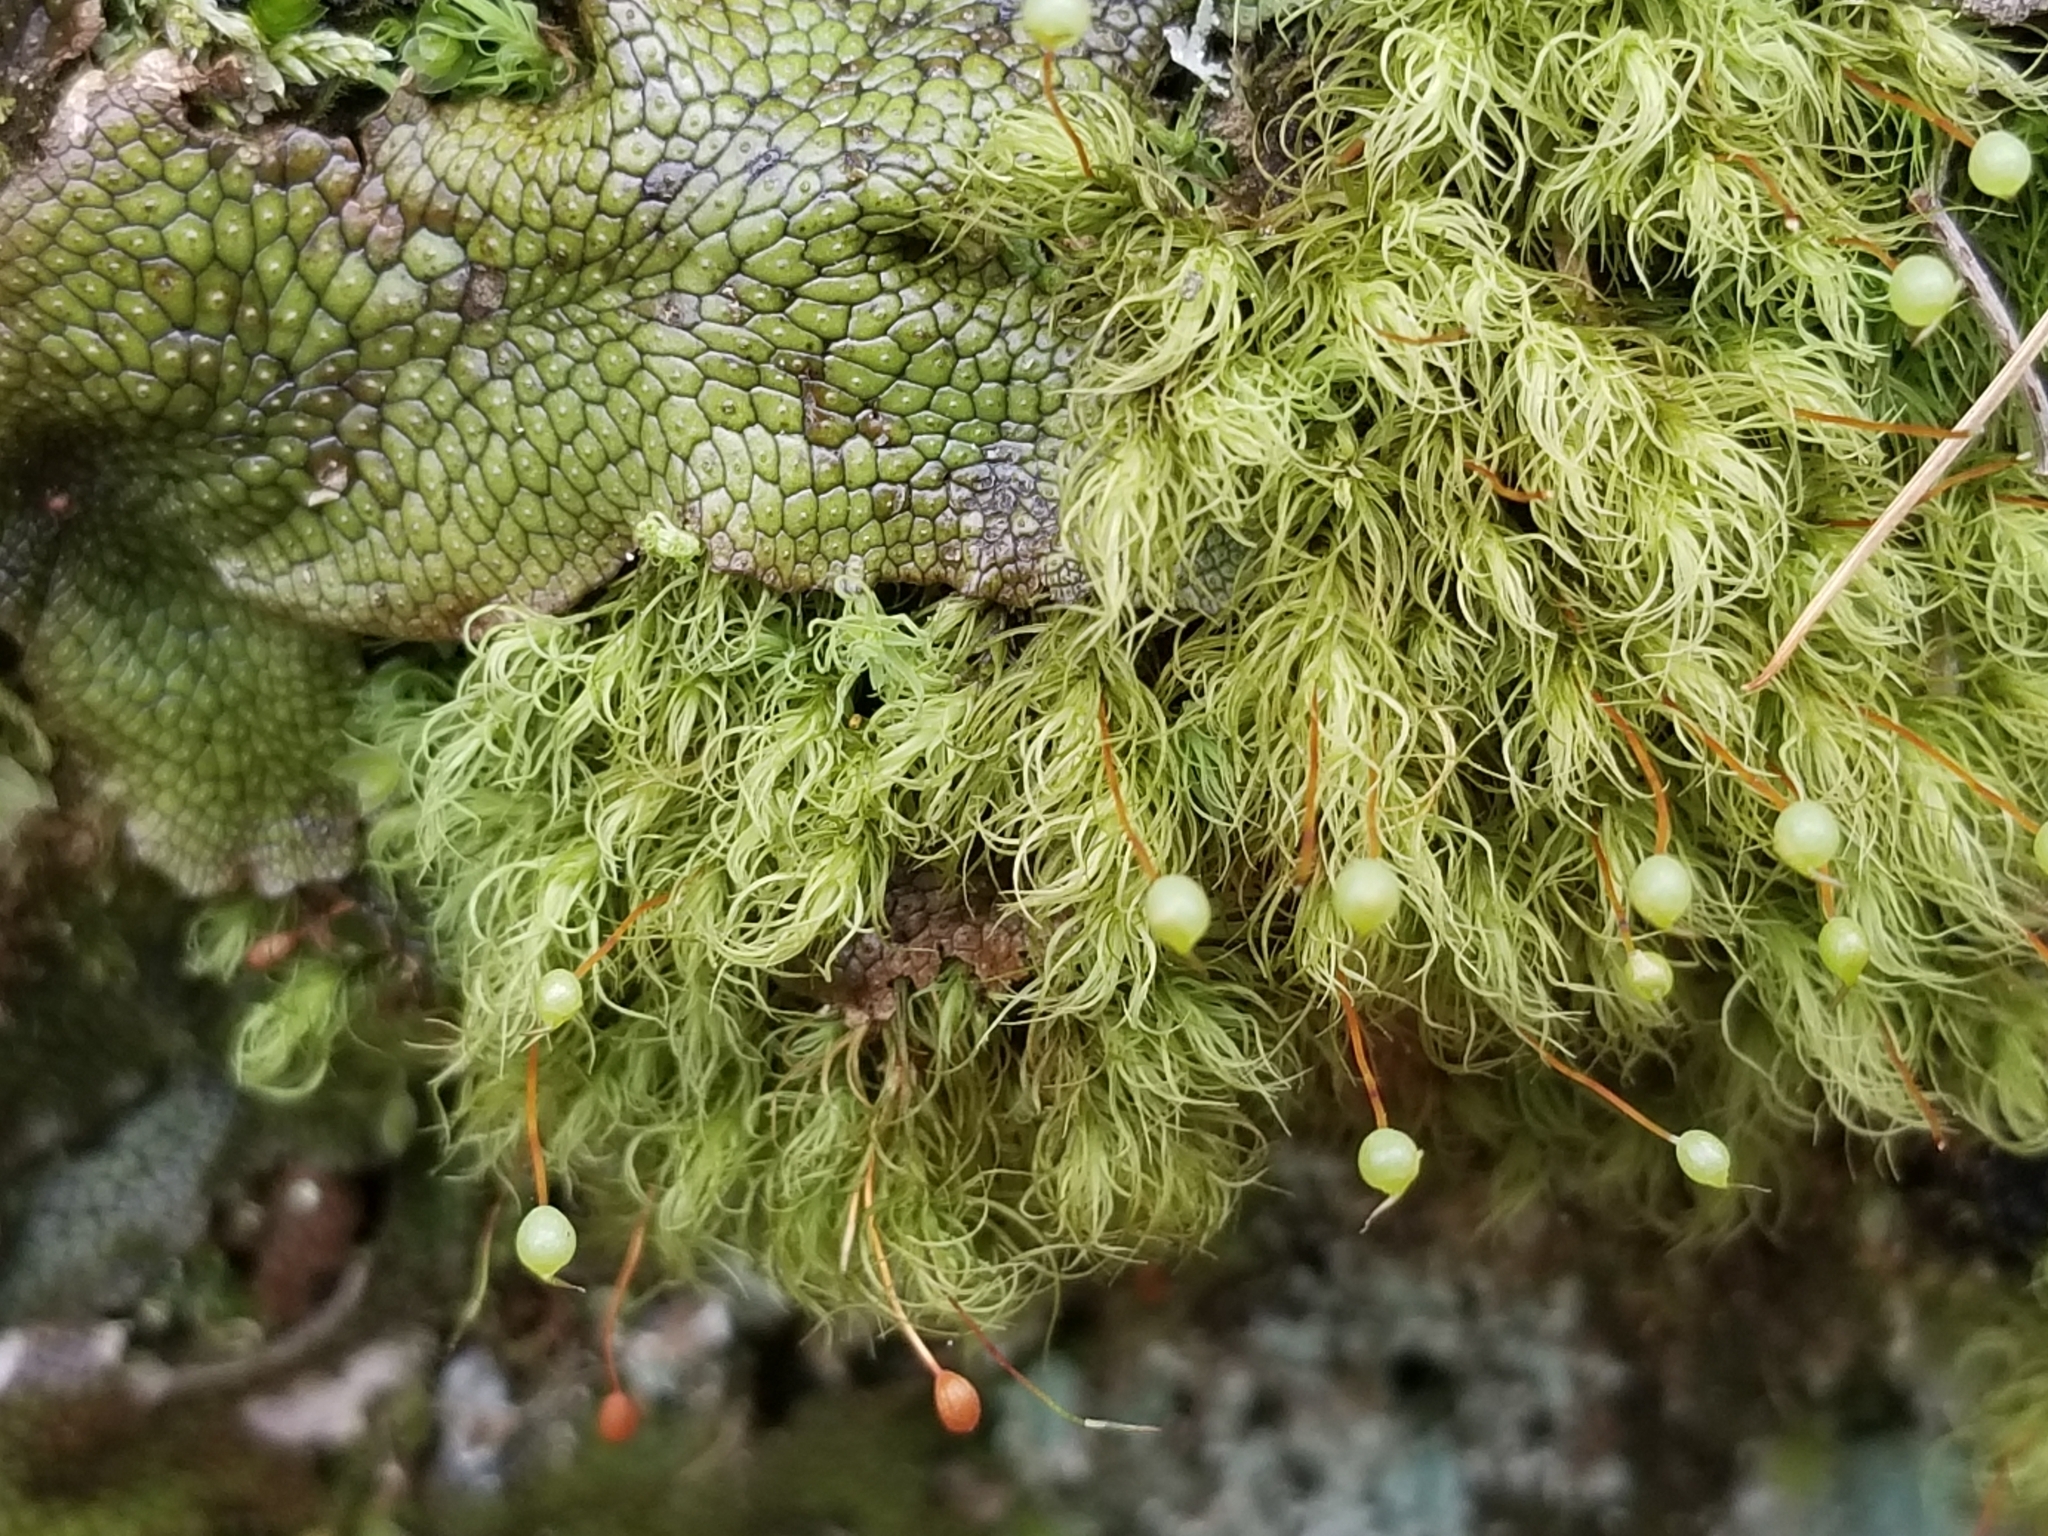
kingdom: Plantae
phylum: Bryophyta
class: Bryopsida
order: Bartramiales
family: Bartramiaceae
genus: Bartramia
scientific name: Bartramia ithyphylla
